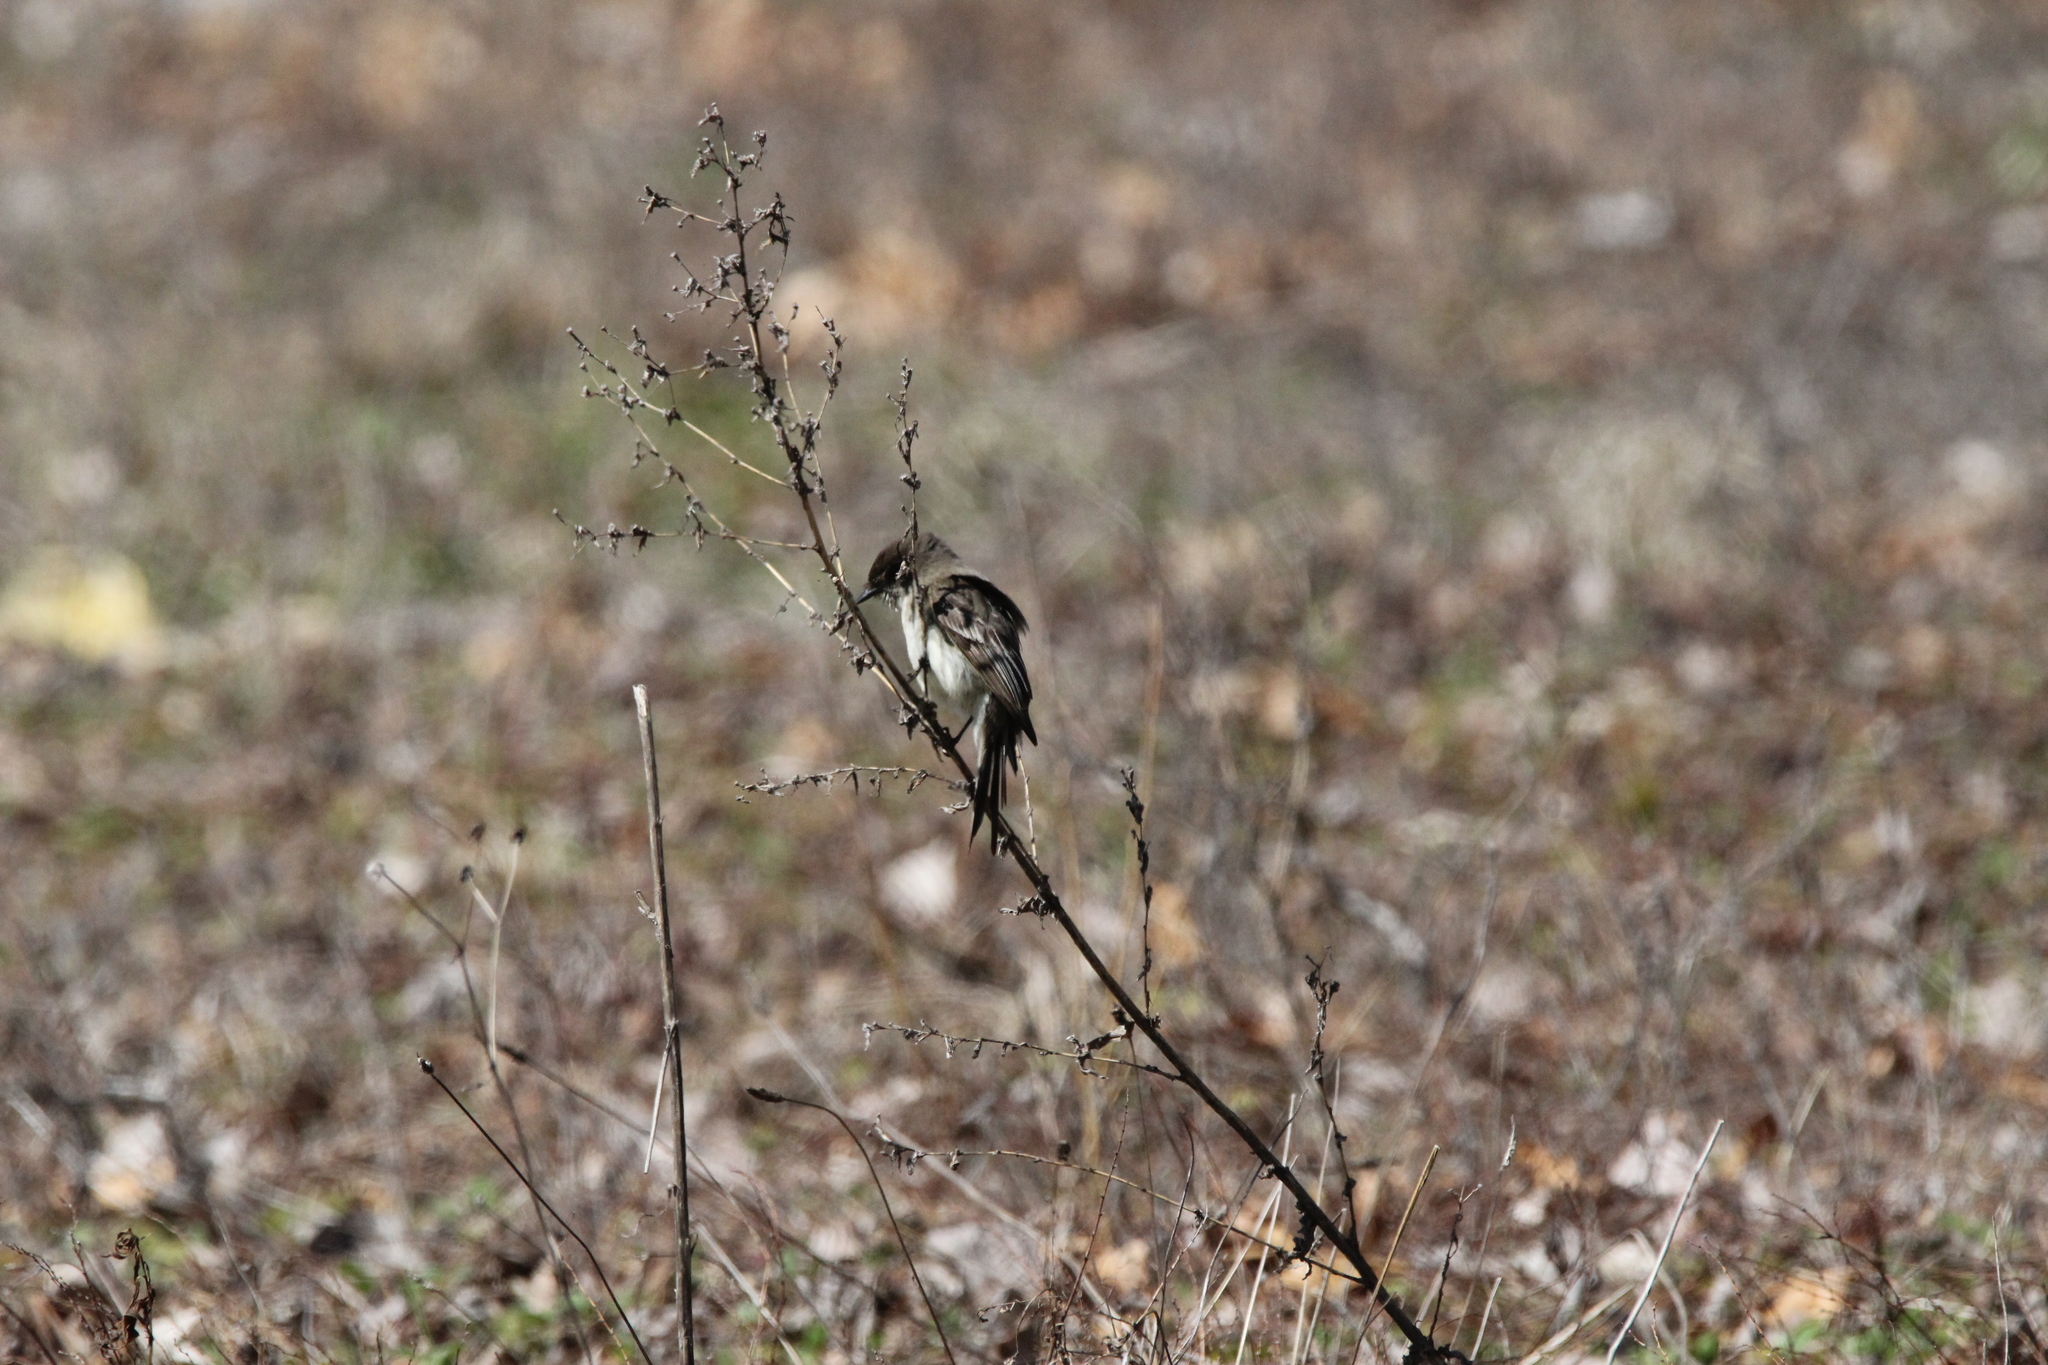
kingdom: Animalia
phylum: Chordata
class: Aves
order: Passeriformes
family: Tyrannidae
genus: Sayornis
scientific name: Sayornis phoebe
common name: Eastern phoebe
